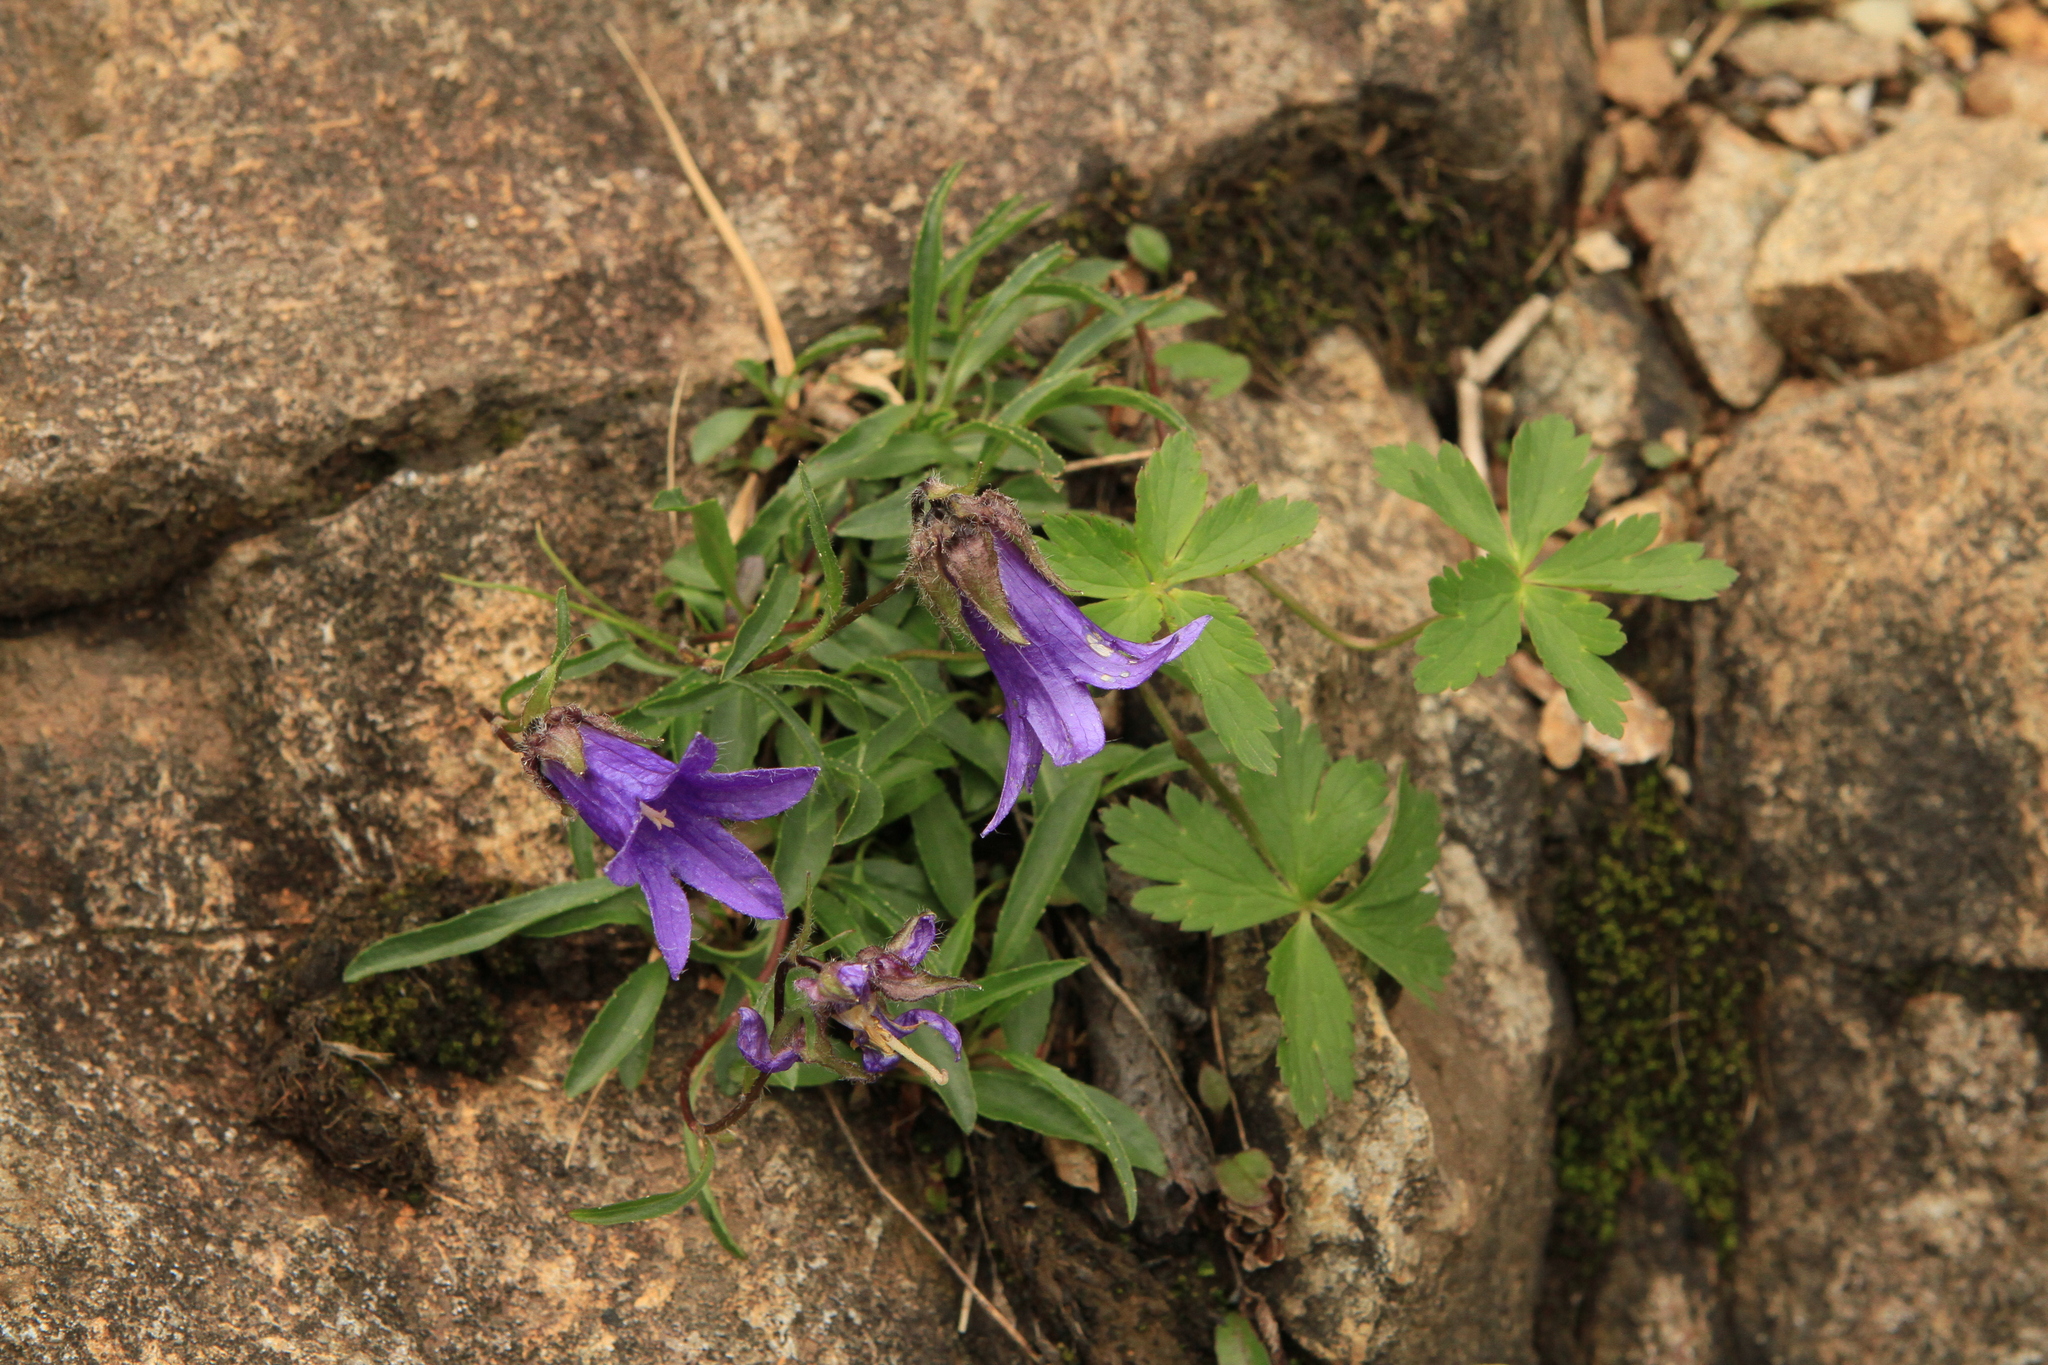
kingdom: Plantae
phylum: Tracheophyta
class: Magnoliopsida
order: Asterales
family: Campanulaceae
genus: Campanula
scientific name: Campanula dasyantha
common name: Hairyflower bellflower
